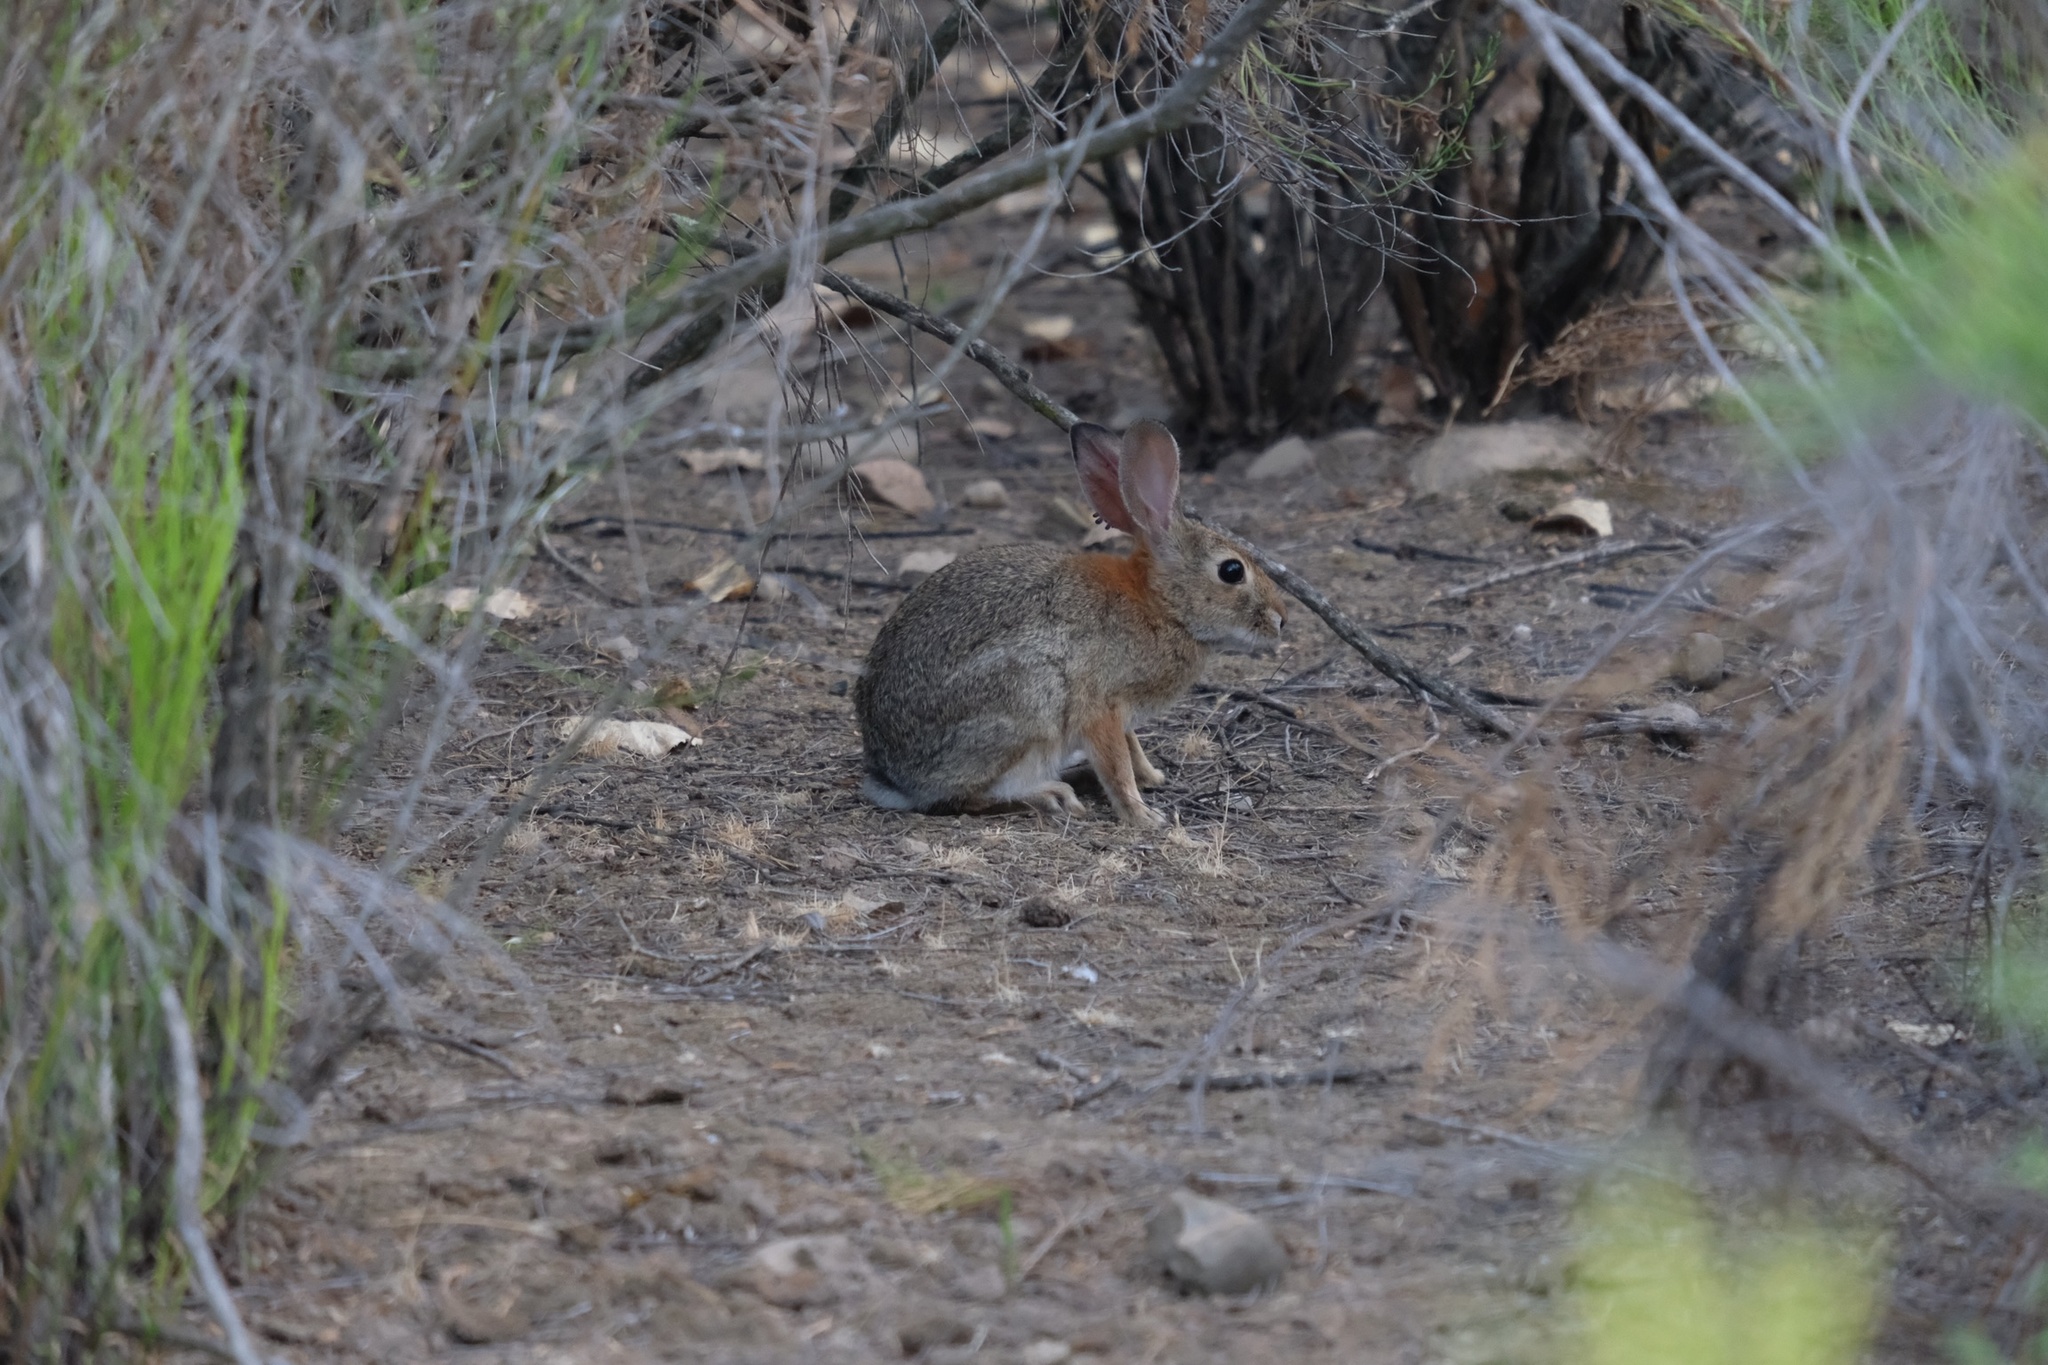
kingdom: Animalia
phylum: Chordata
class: Mammalia
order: Lagomorpha
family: Leporidae
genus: Sylvilagus
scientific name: Sylvilagus audubonii
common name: Desert cottontail
